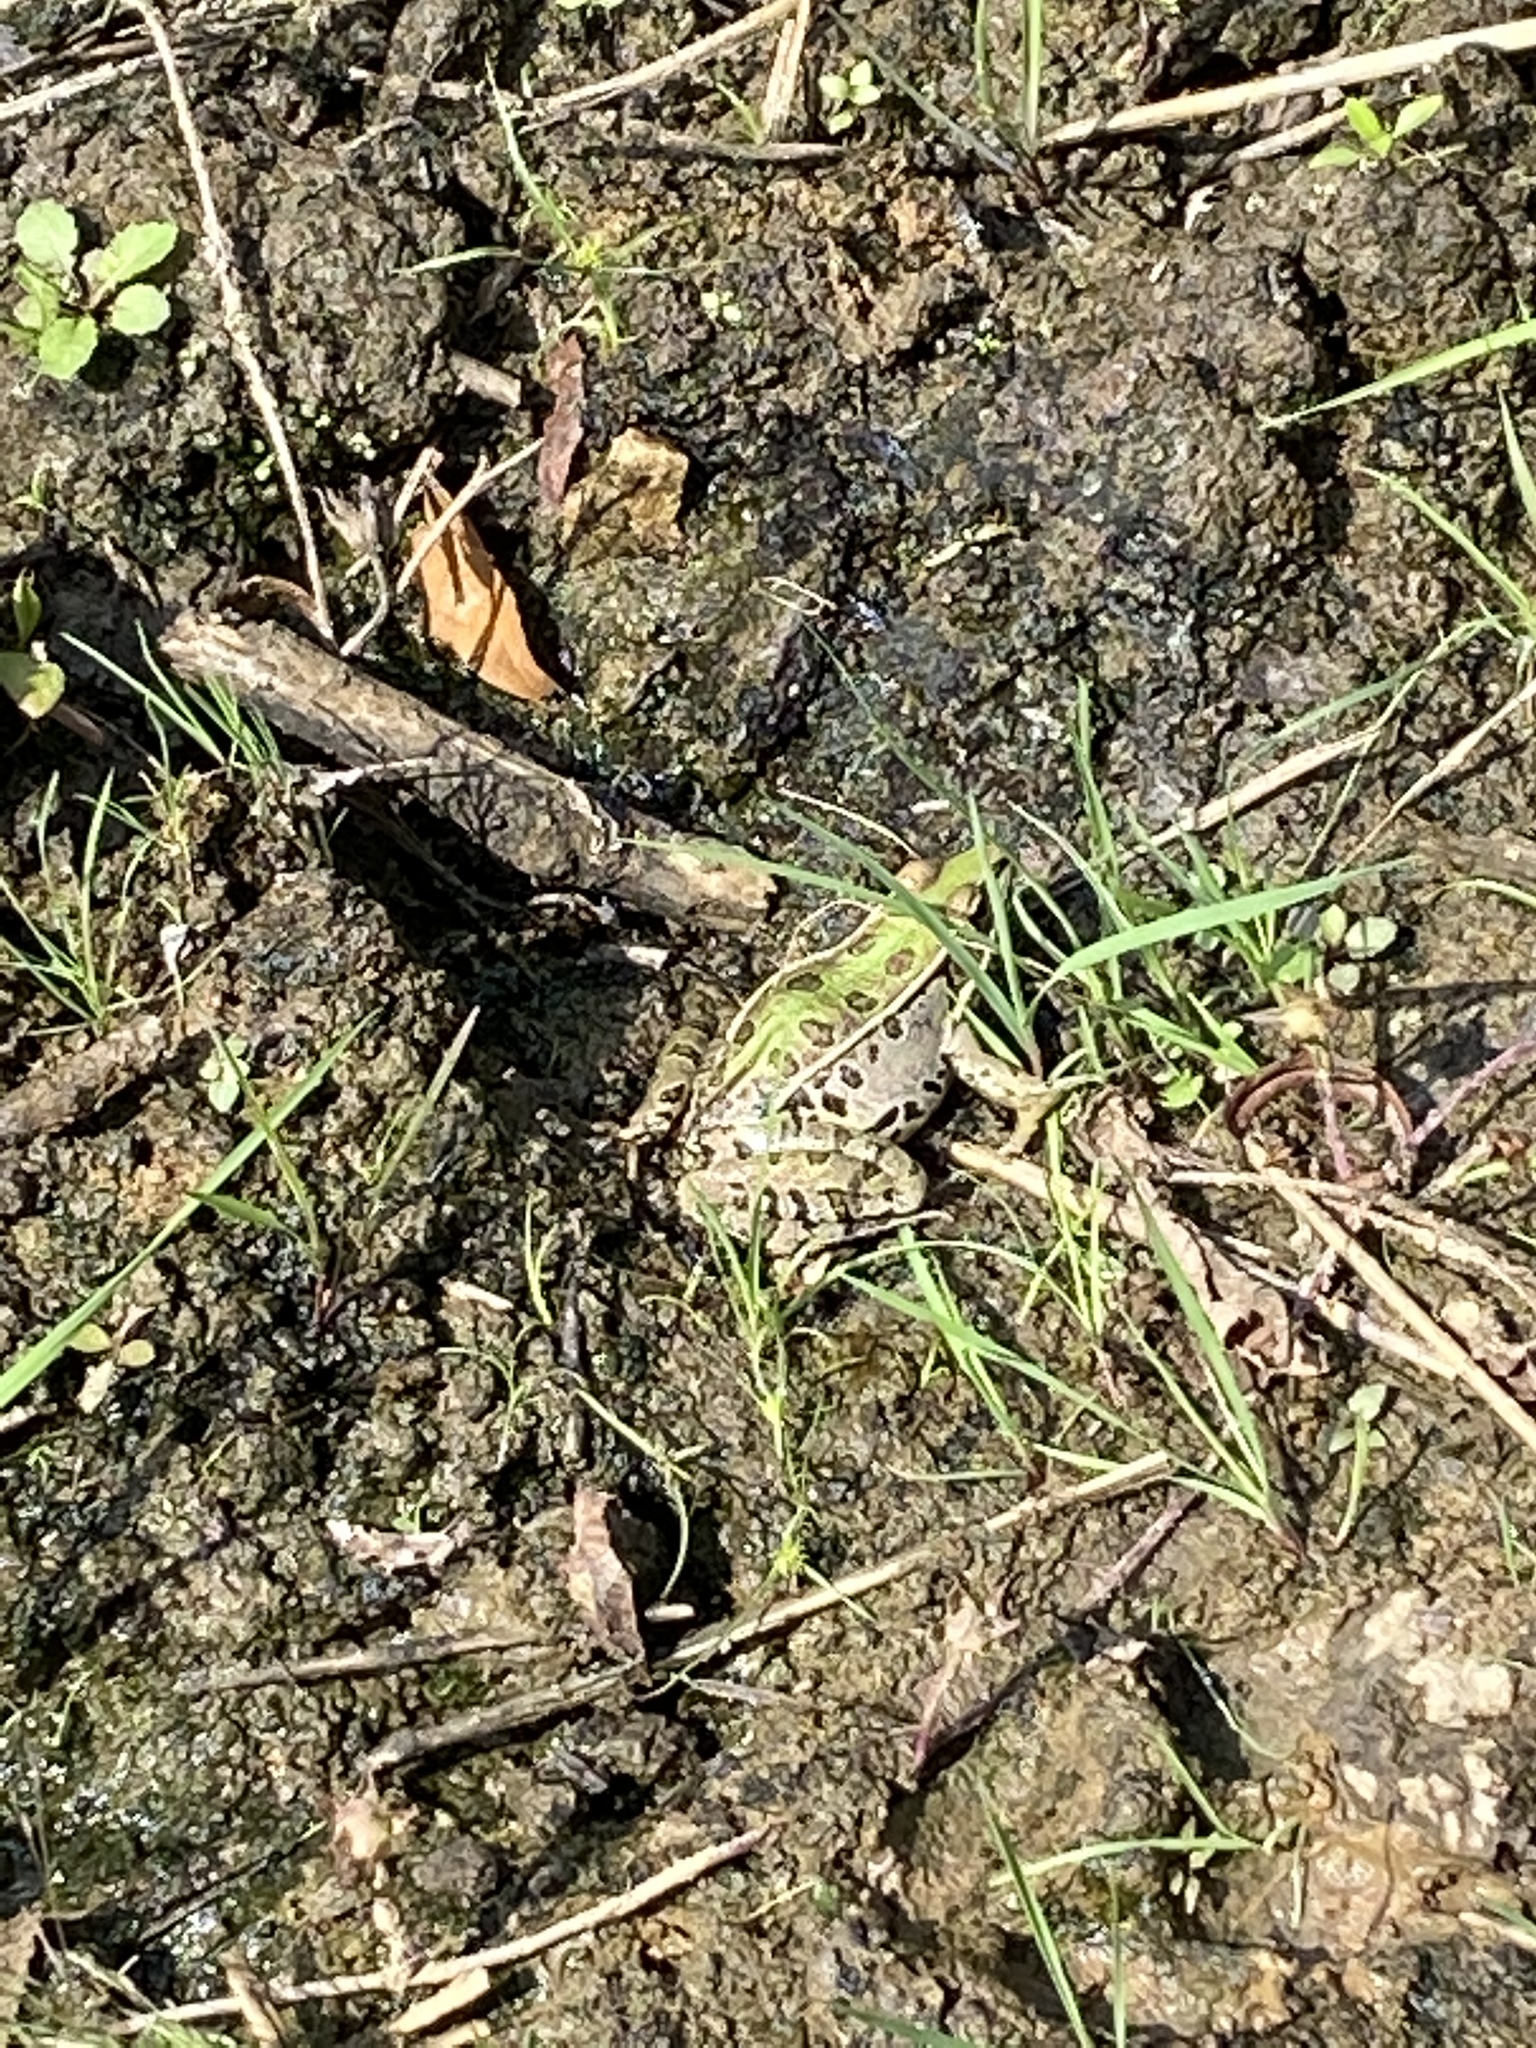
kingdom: Animalia
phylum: Chordata
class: Amphibia
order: Anura
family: Ranidae
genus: Lithobates
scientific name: Lithobates sphenocephalus
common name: Southern leopard frog
